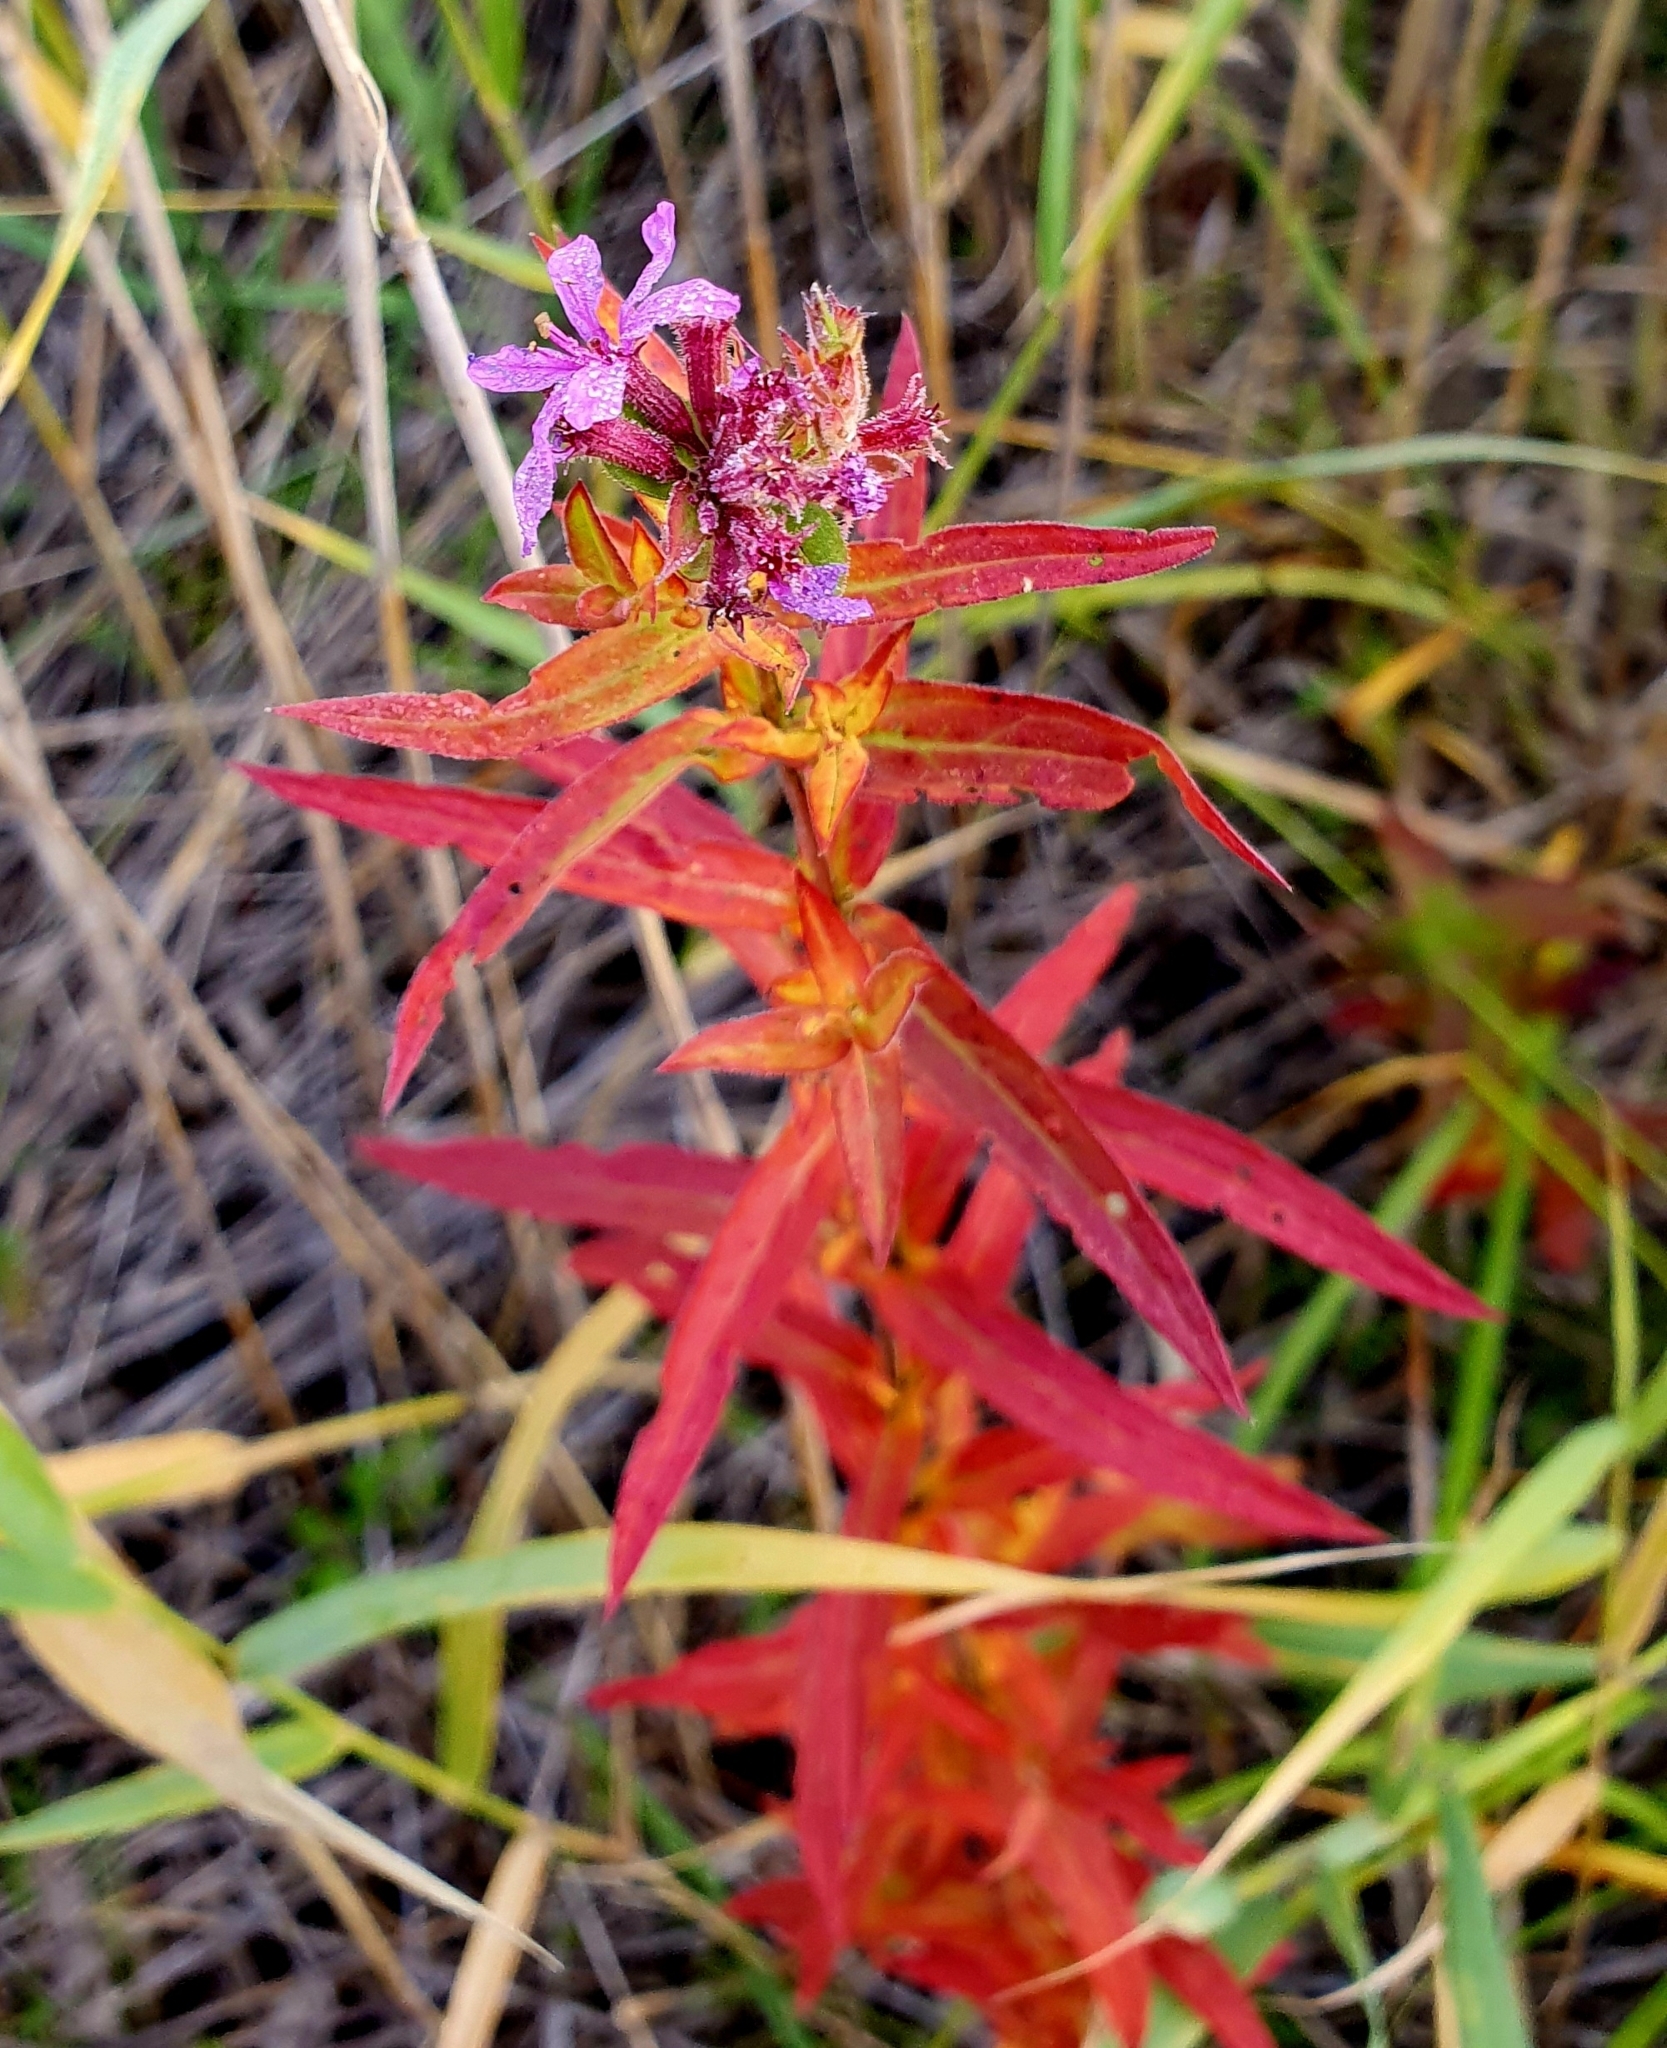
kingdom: Plantae
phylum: Tracheophyta
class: Magnoliopsida
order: Myrtales
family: Lythraceae
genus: Lythrum
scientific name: Lythrum virgatum
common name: European wand loosestrife
